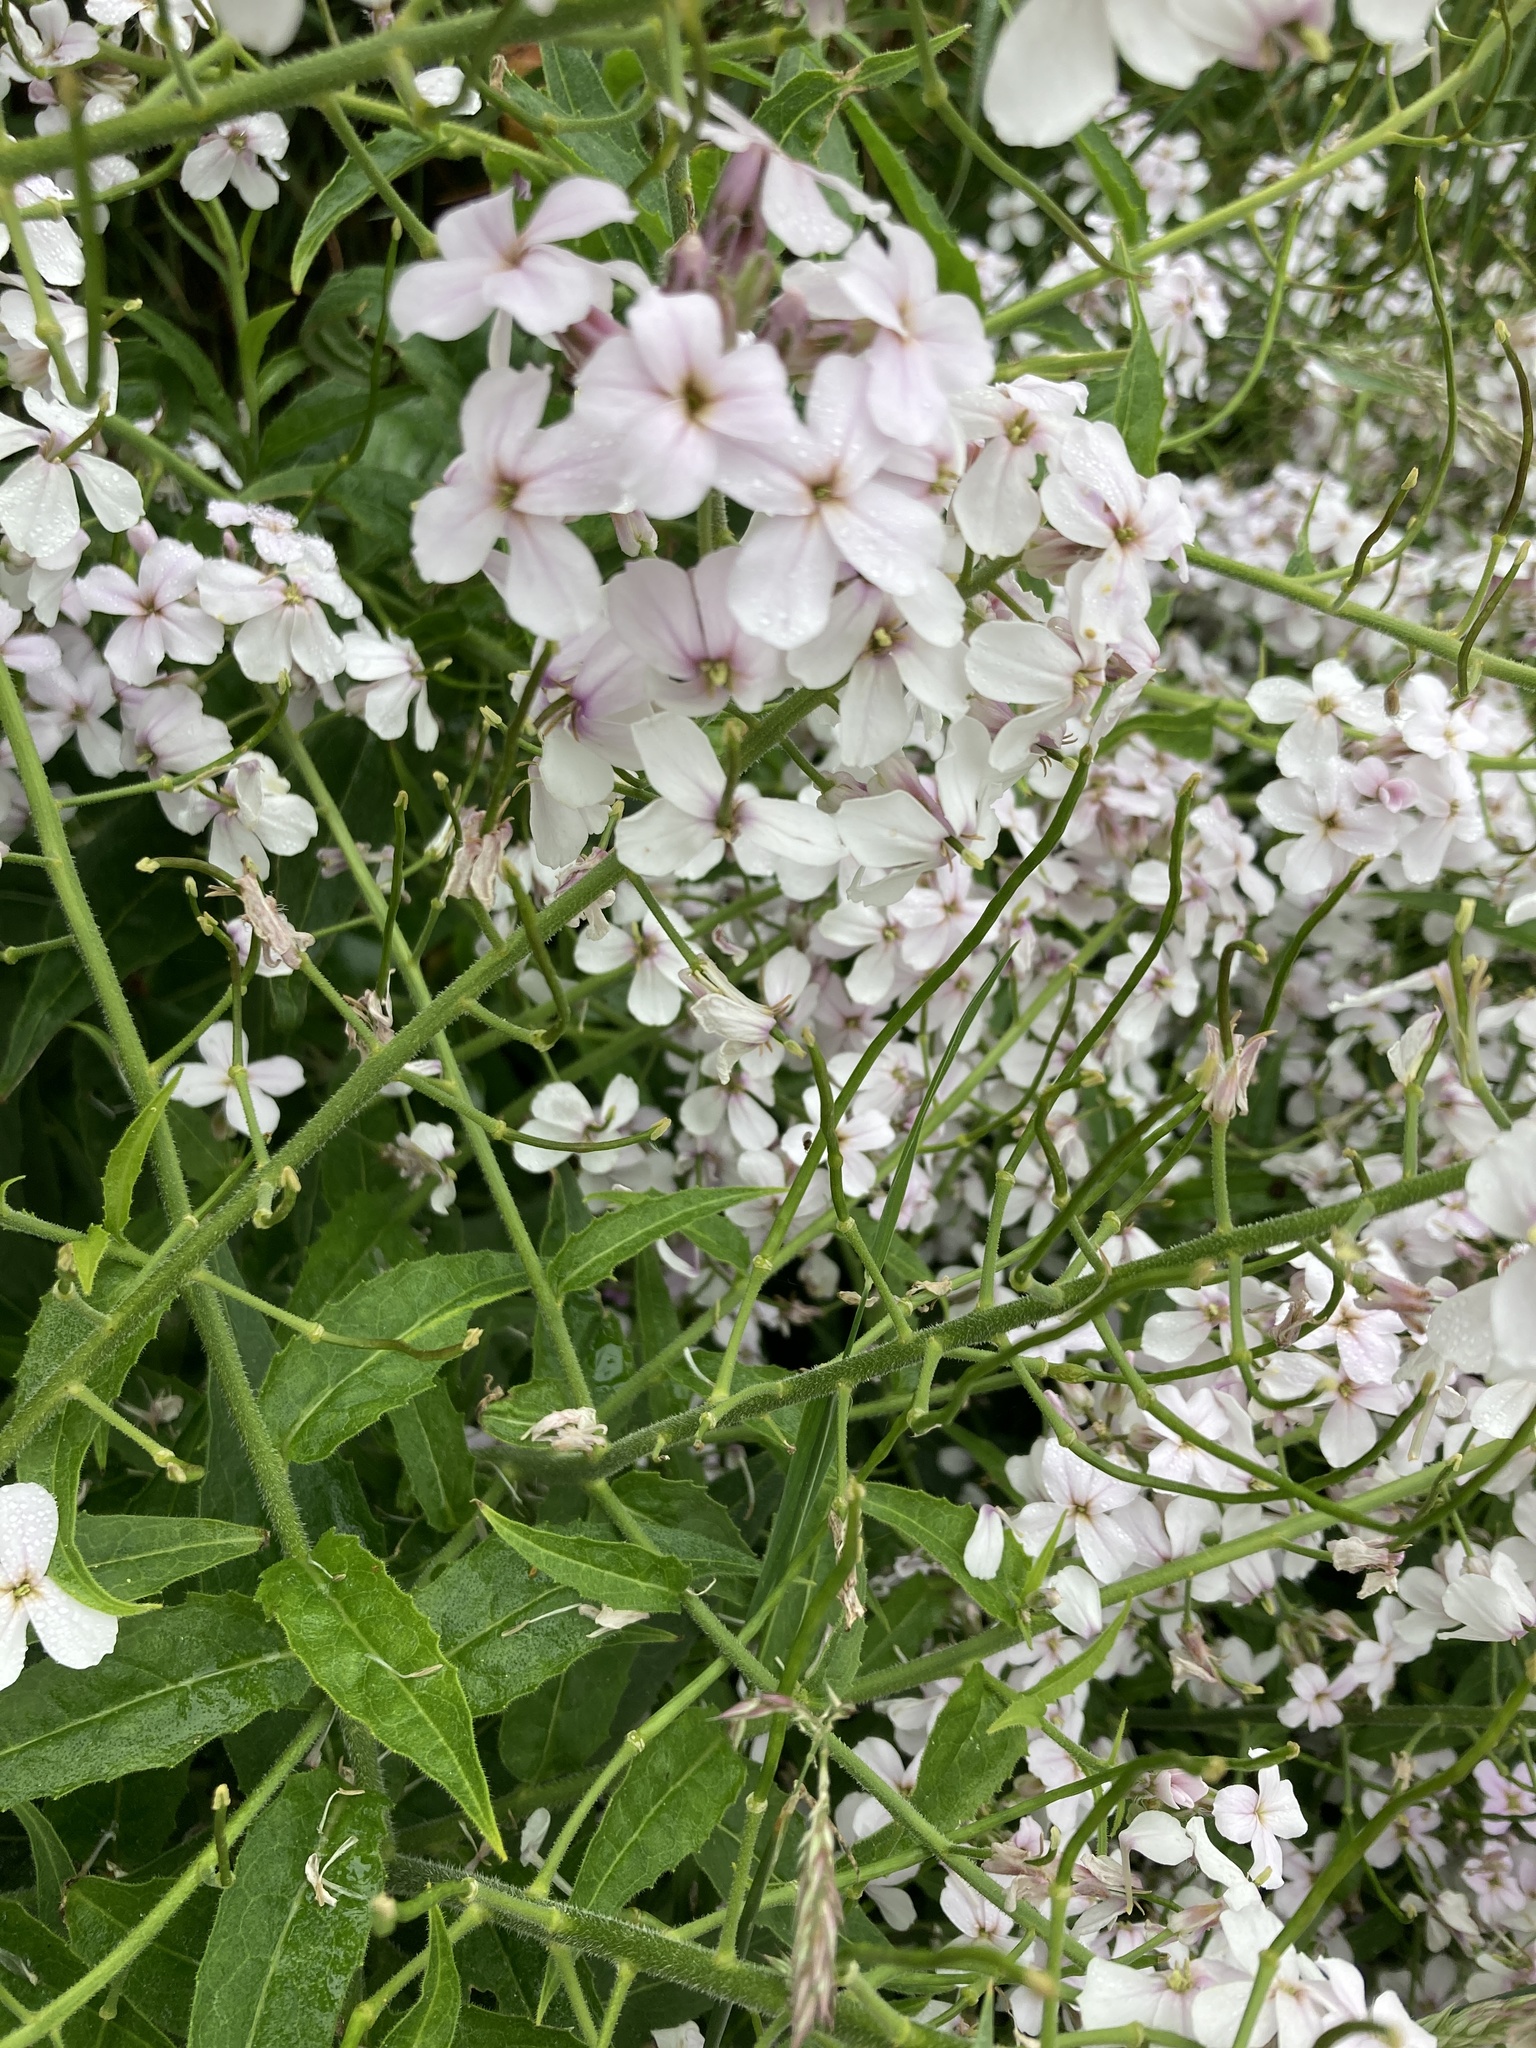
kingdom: Plantae
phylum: Tracheophyta
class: Magnoliopsida
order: Brassicales
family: Brassicaceae
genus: Hesperis
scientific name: Hesperis matronalis
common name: Dame's-violet
